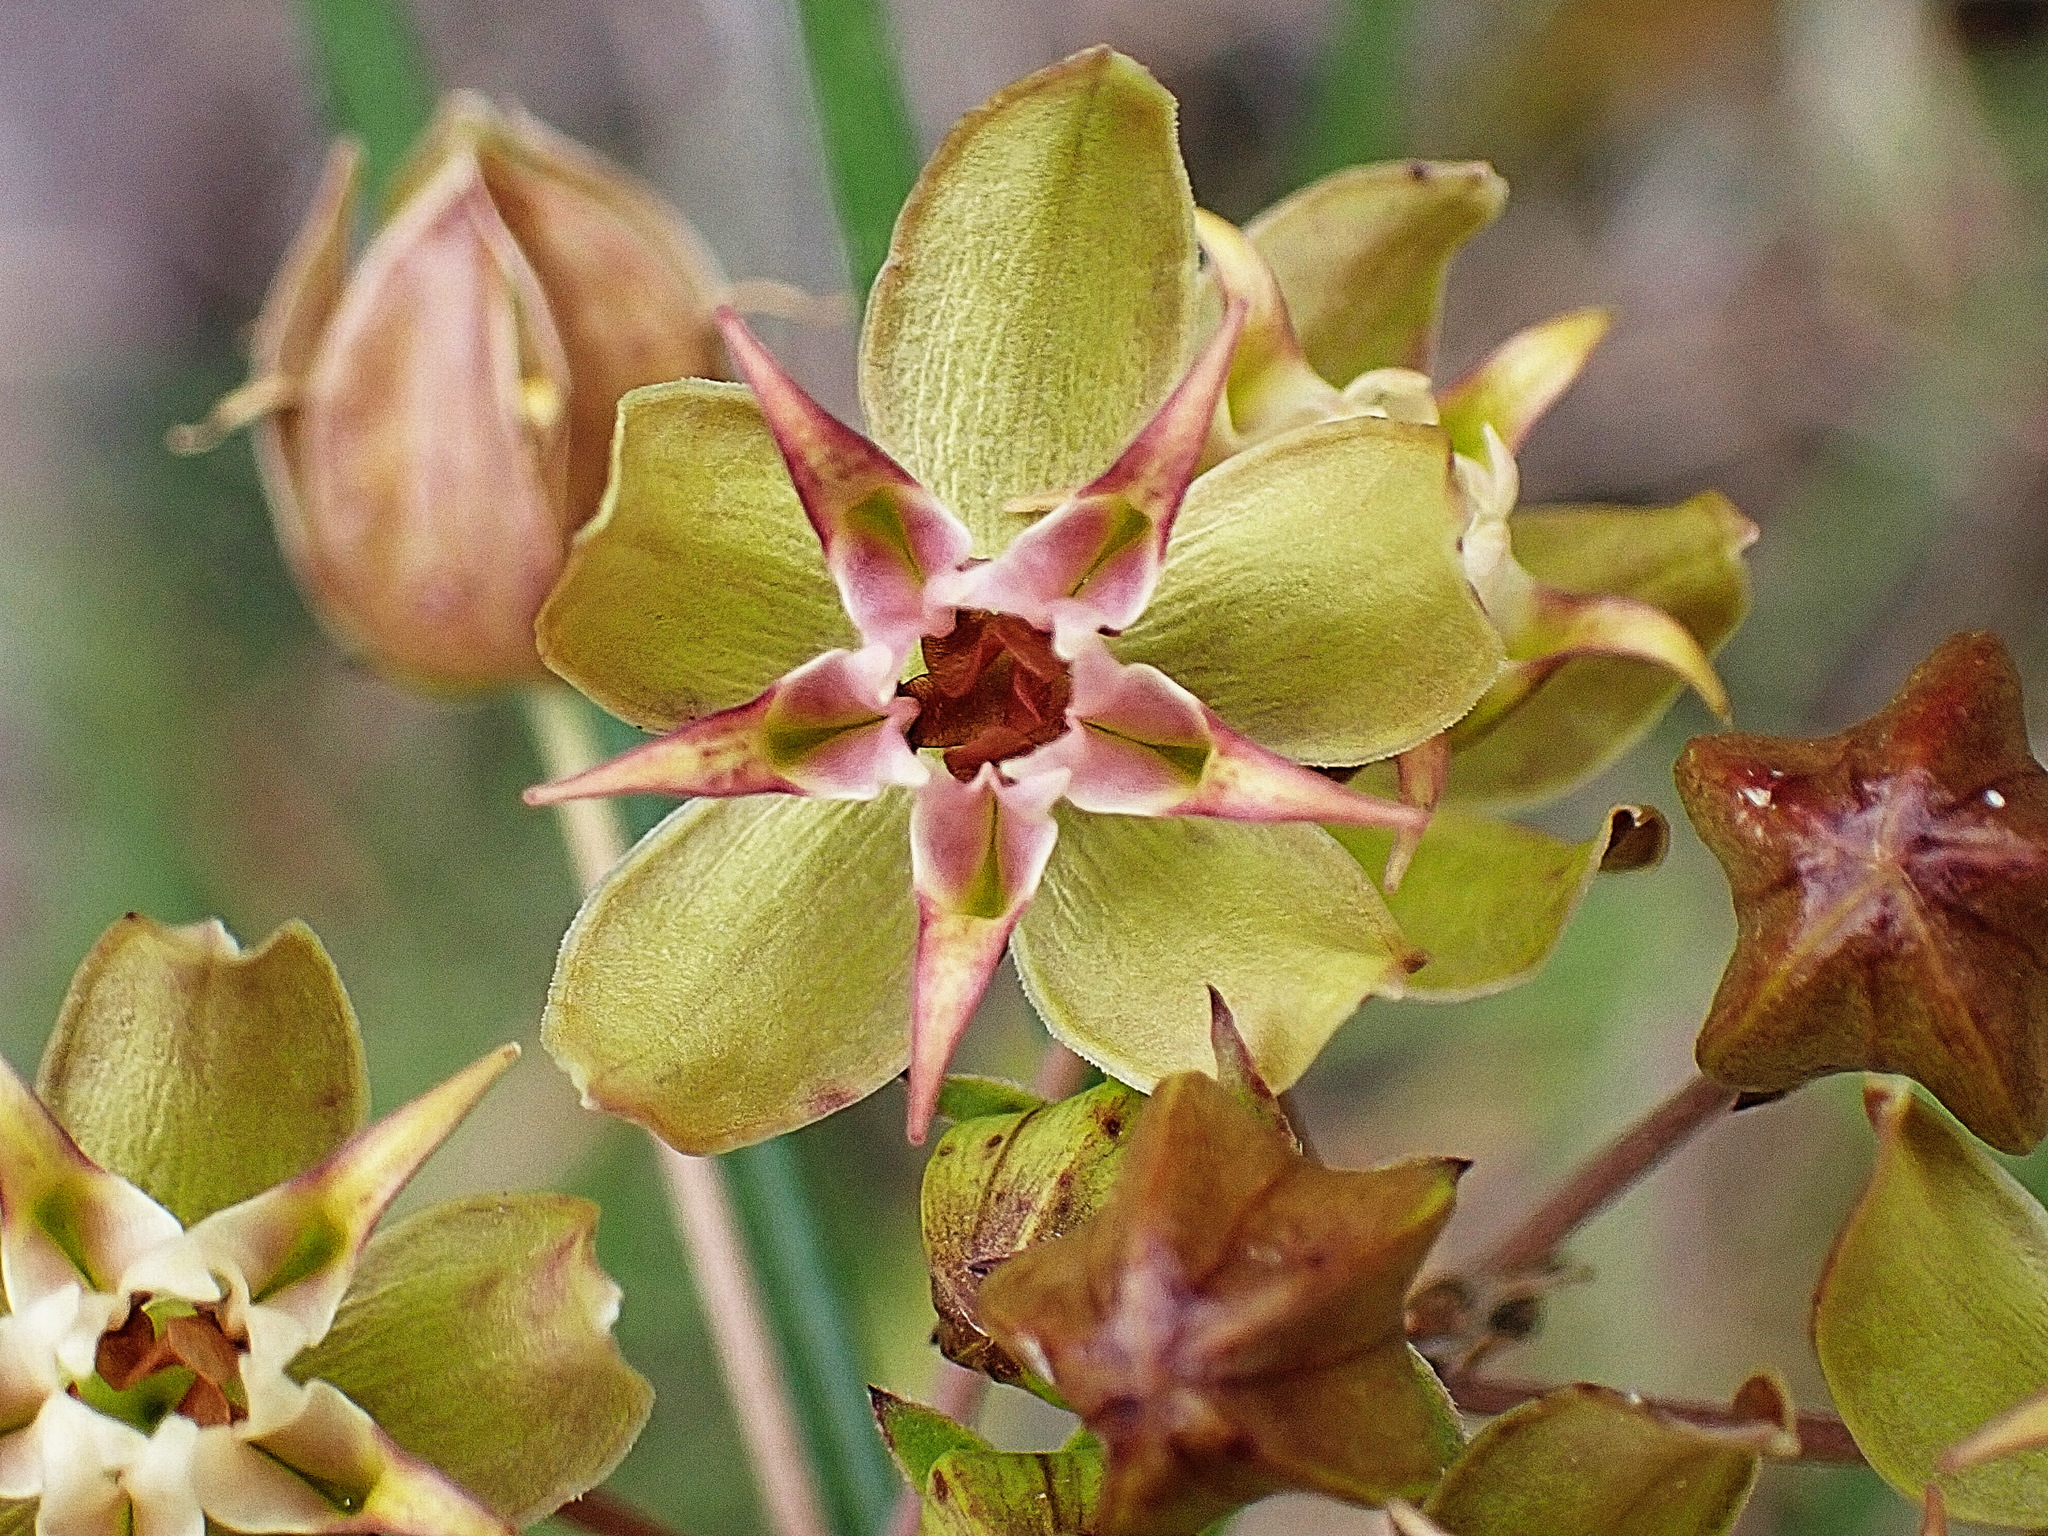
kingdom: Plantae
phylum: Tracheophyta
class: Magnoliopsida
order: Gentianales
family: Apocynaceae
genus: Asclepias
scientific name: Asclepias expansa
